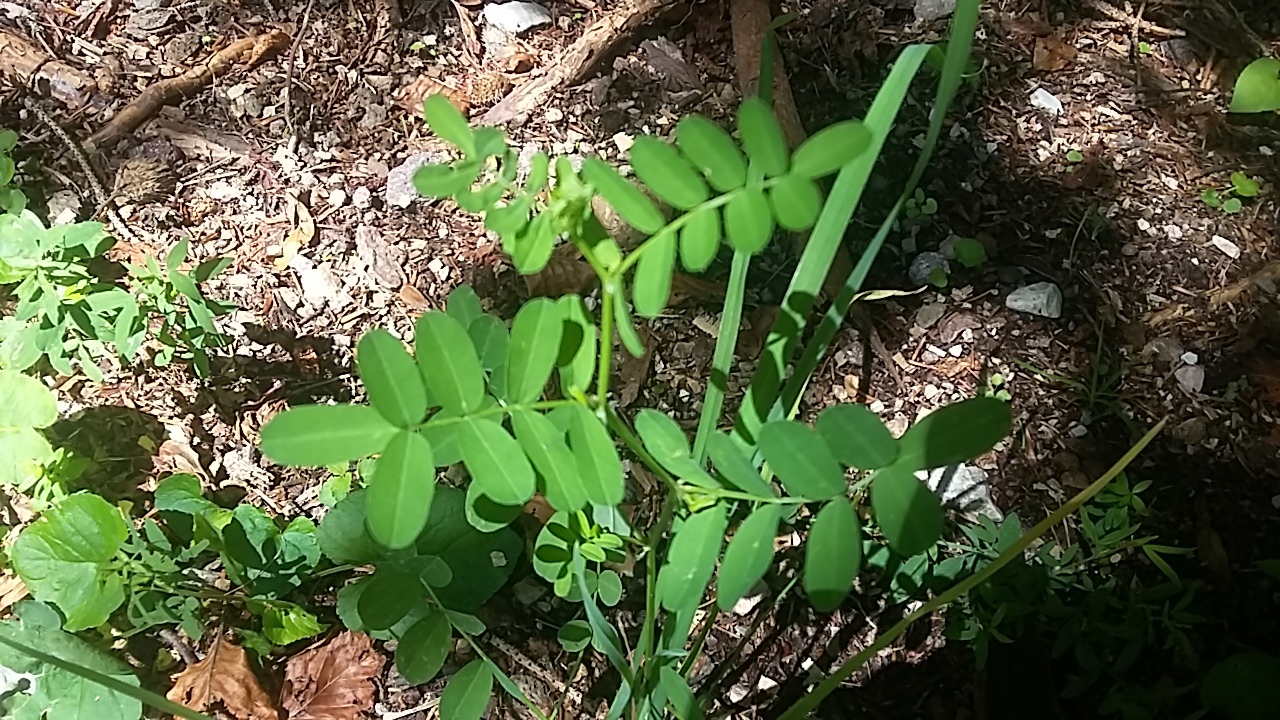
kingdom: Plantae
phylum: Tracheophyta
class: Magnoliopsida
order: Fabales
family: Fabaceae
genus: Robinia
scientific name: Robinia pseudoacacia
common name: Black locust
